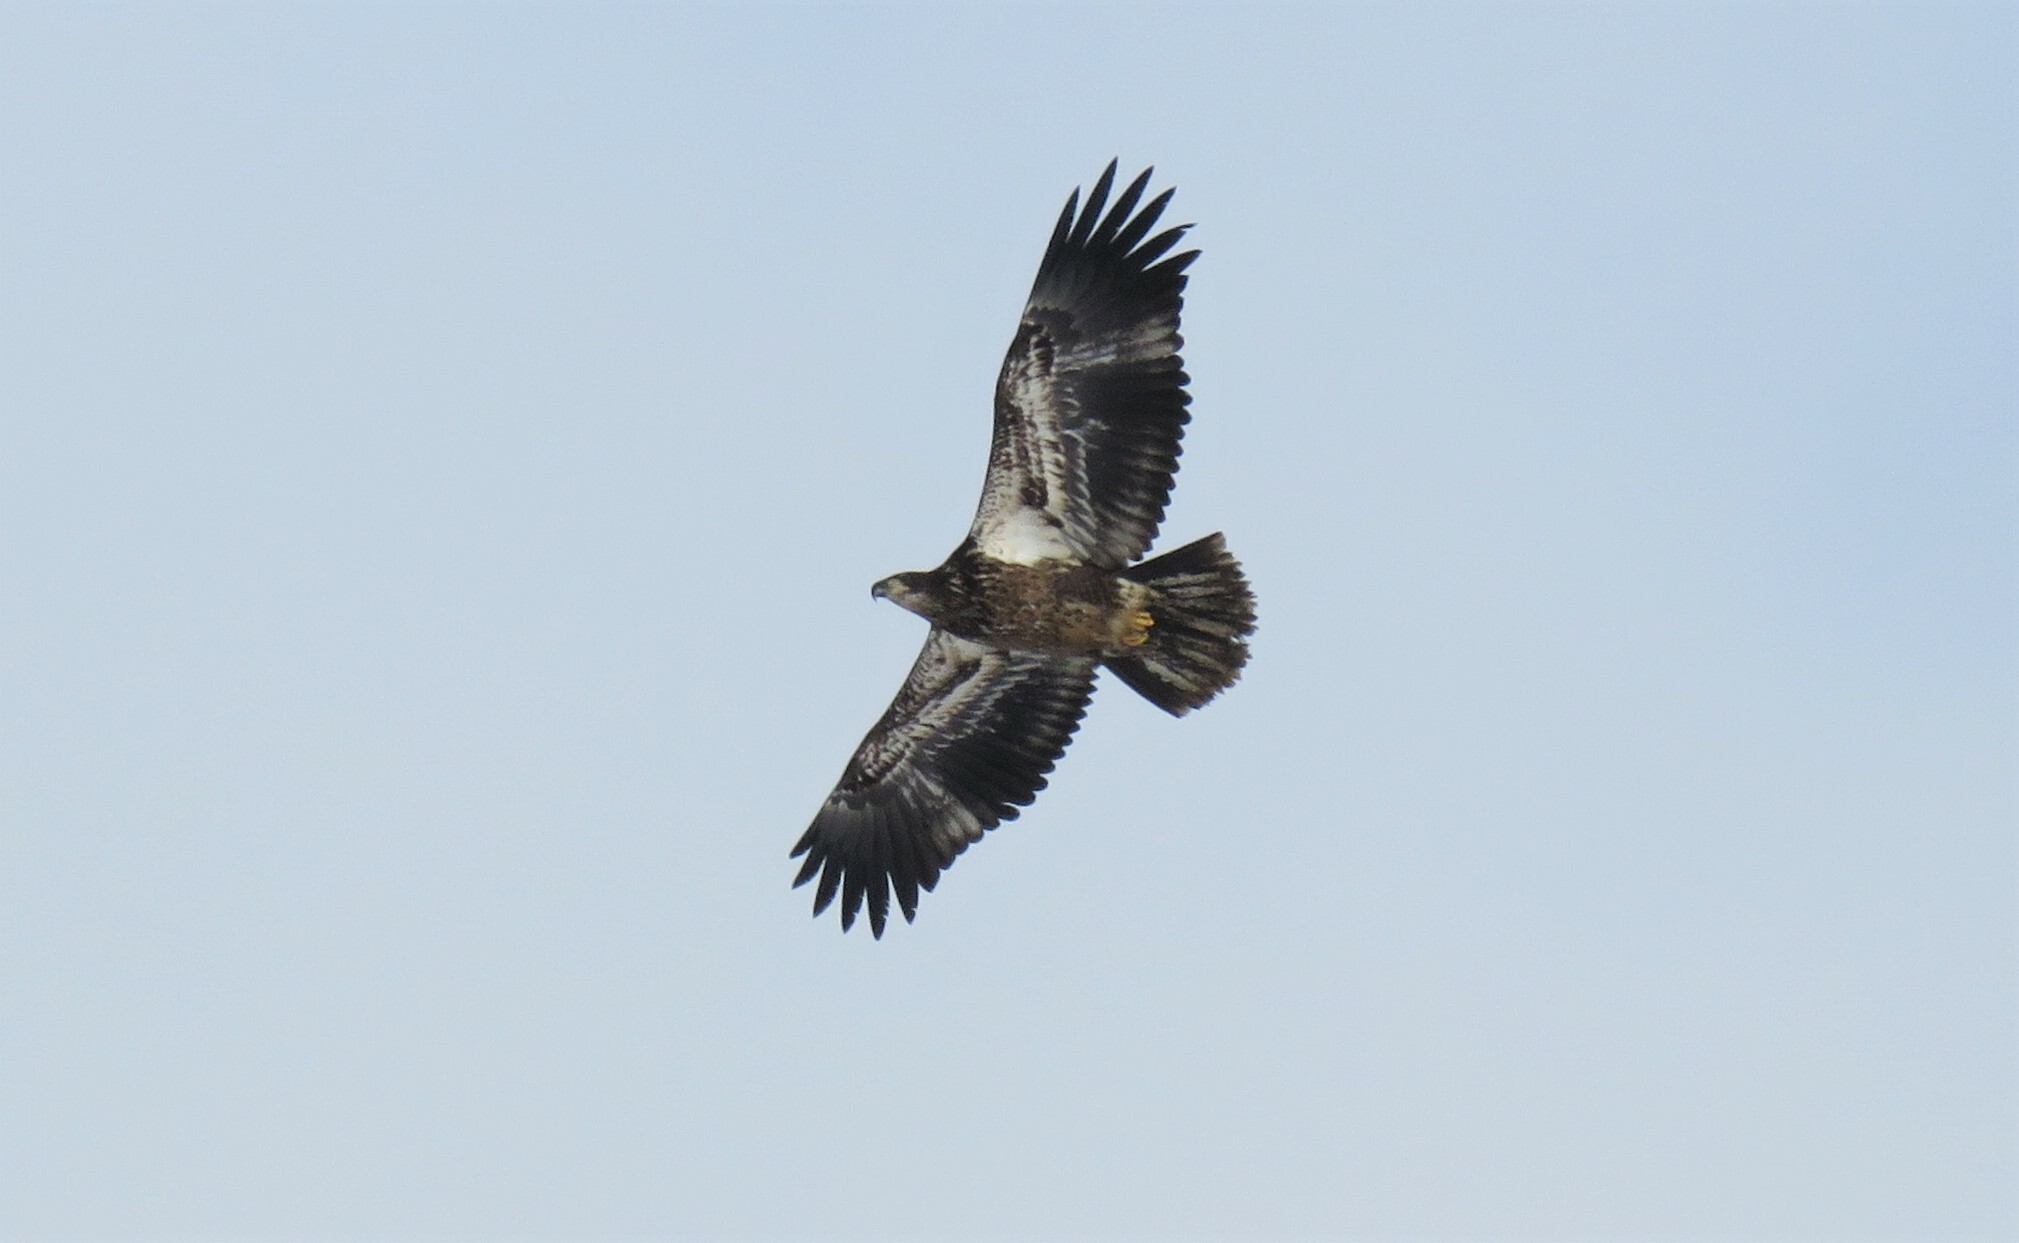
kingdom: Animalia
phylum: Chordata
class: Aves
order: Accipitriformes
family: Accipitridae
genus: Haliaeetus
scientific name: Haliaeetus leucocephalus
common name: Bald eagle
